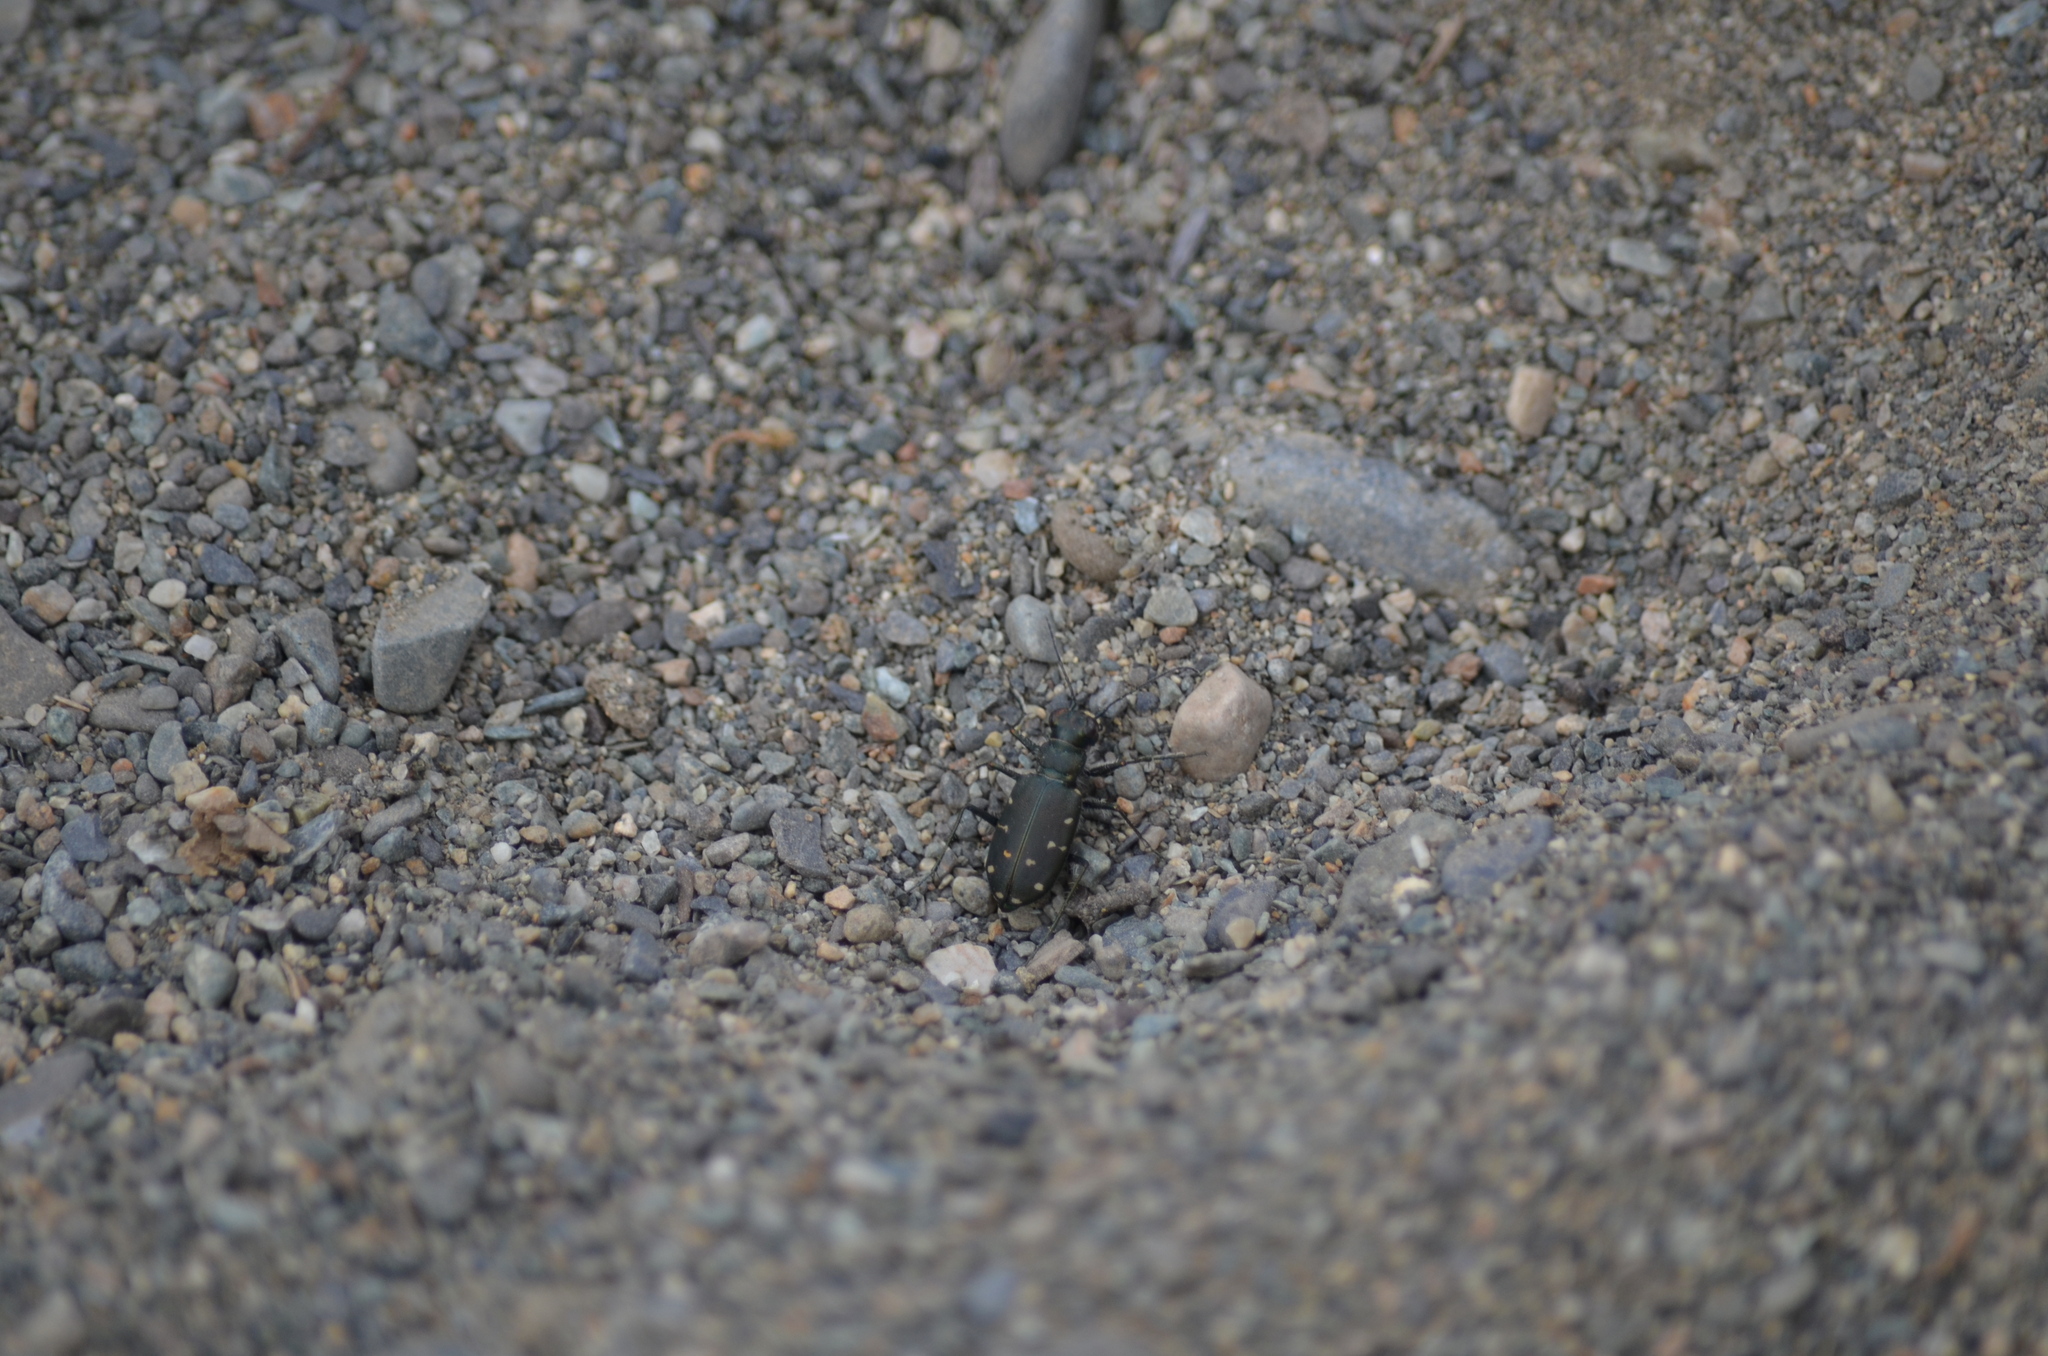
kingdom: Animalia
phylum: Arthropoda
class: Insecta
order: Coleoptera
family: Carabidae
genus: Cicindela
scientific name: Cicindela oregona
